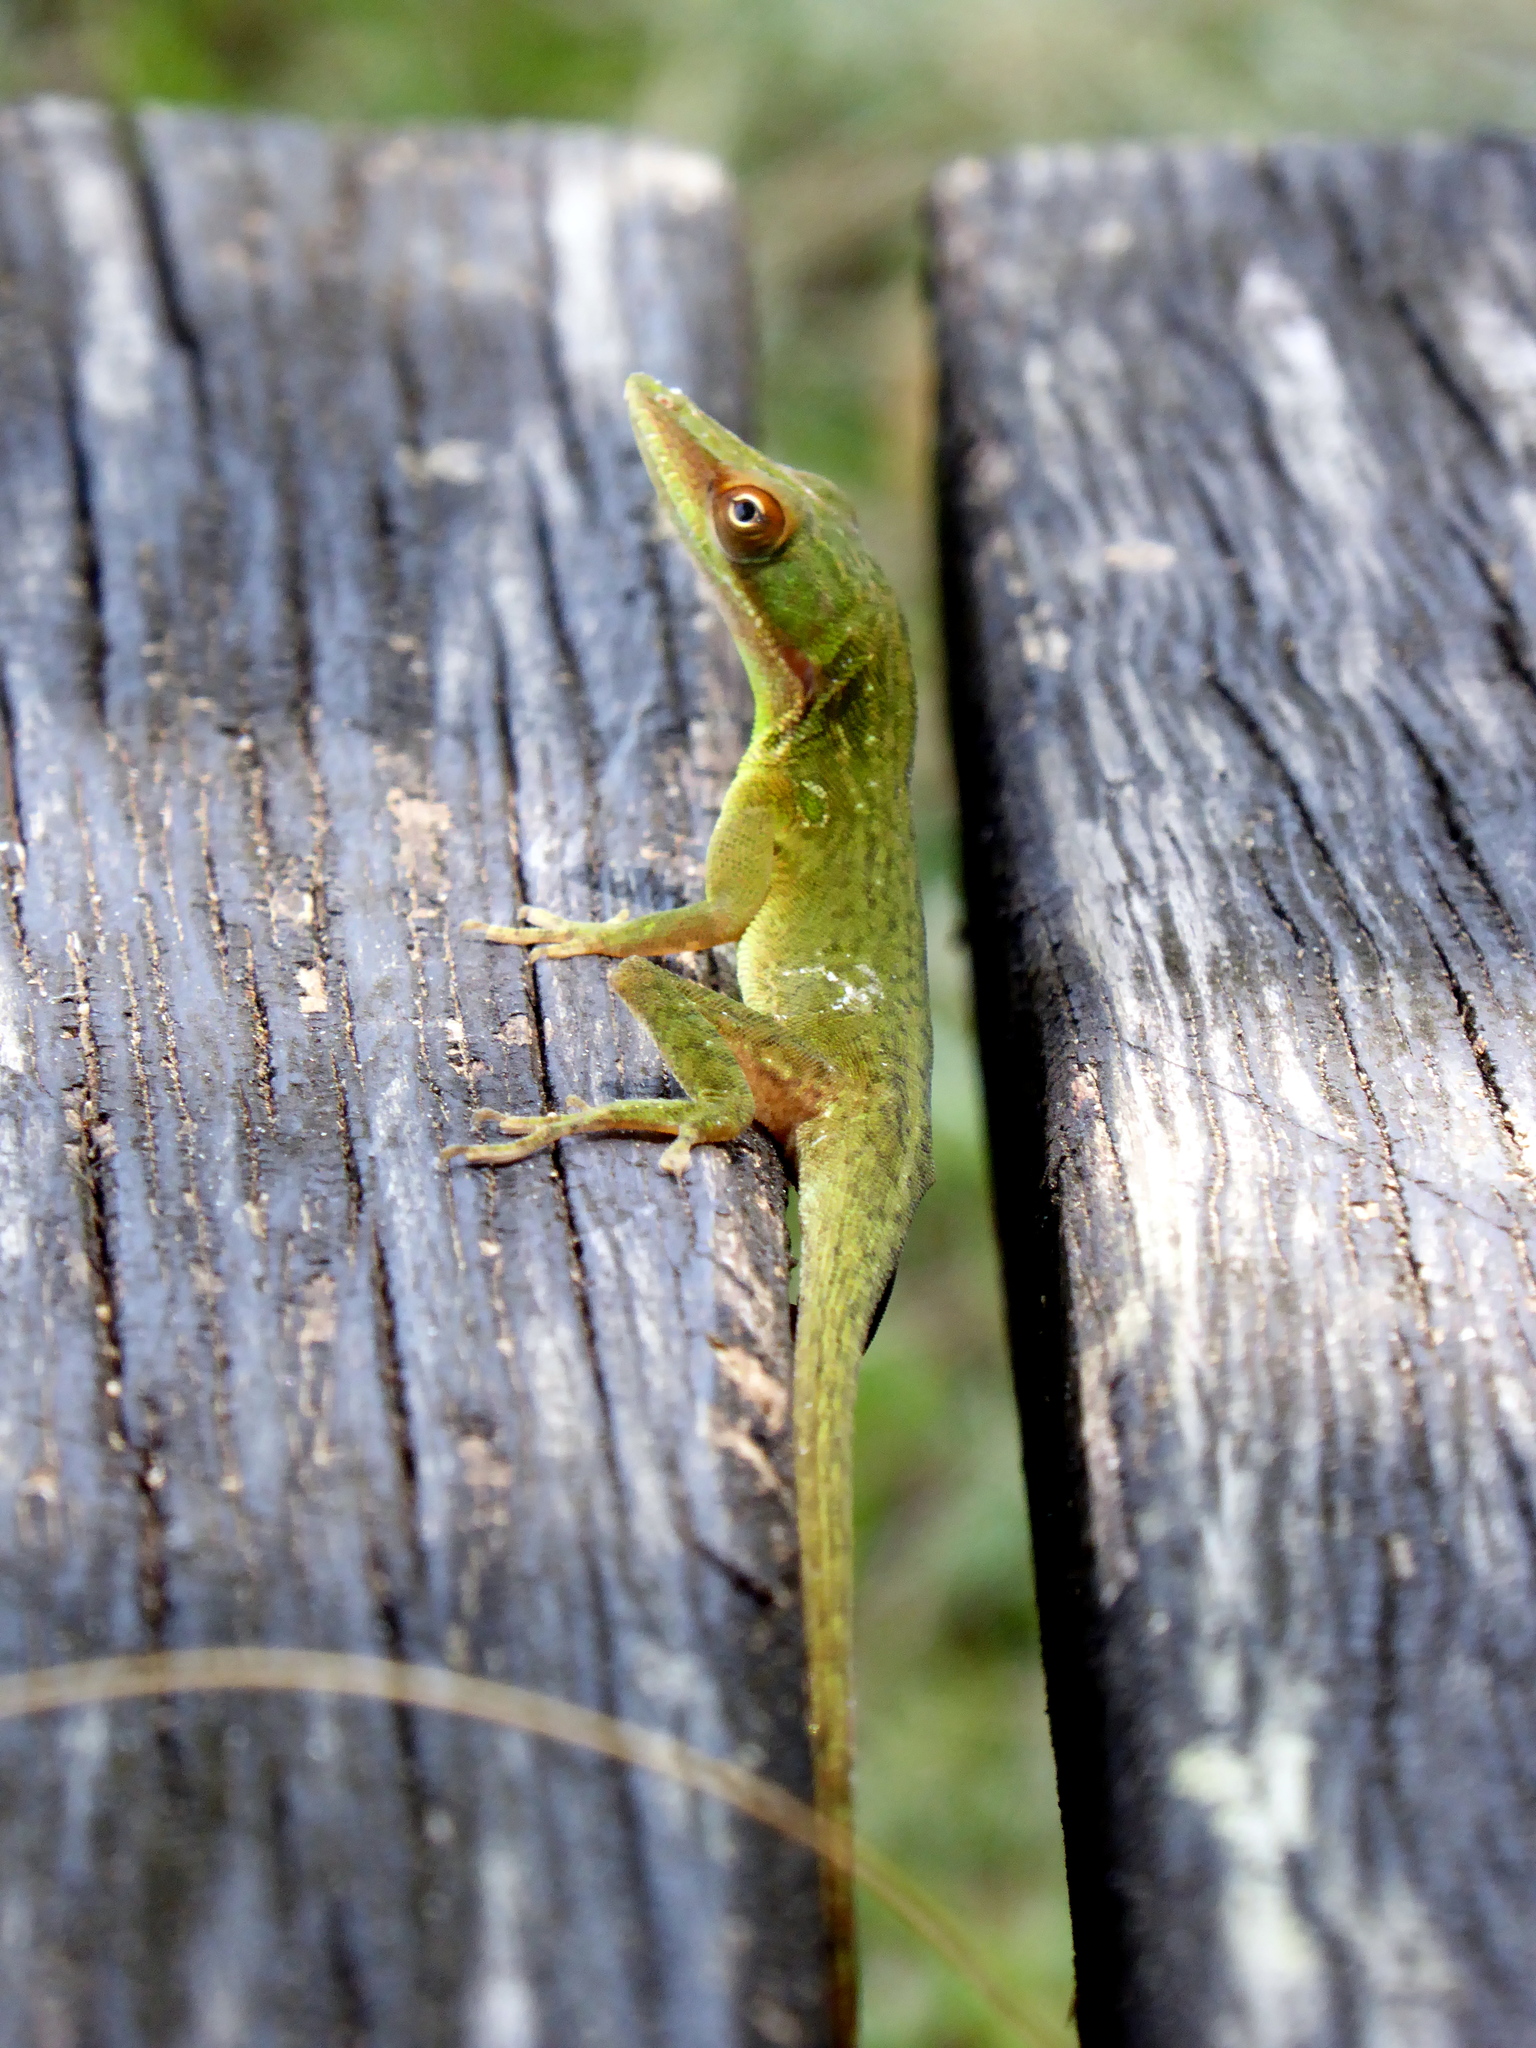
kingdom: Animalia
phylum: Chordata
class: Squamata
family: Dactyloidae
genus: Anolis
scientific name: Anolis allisoni
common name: Allison's anole
